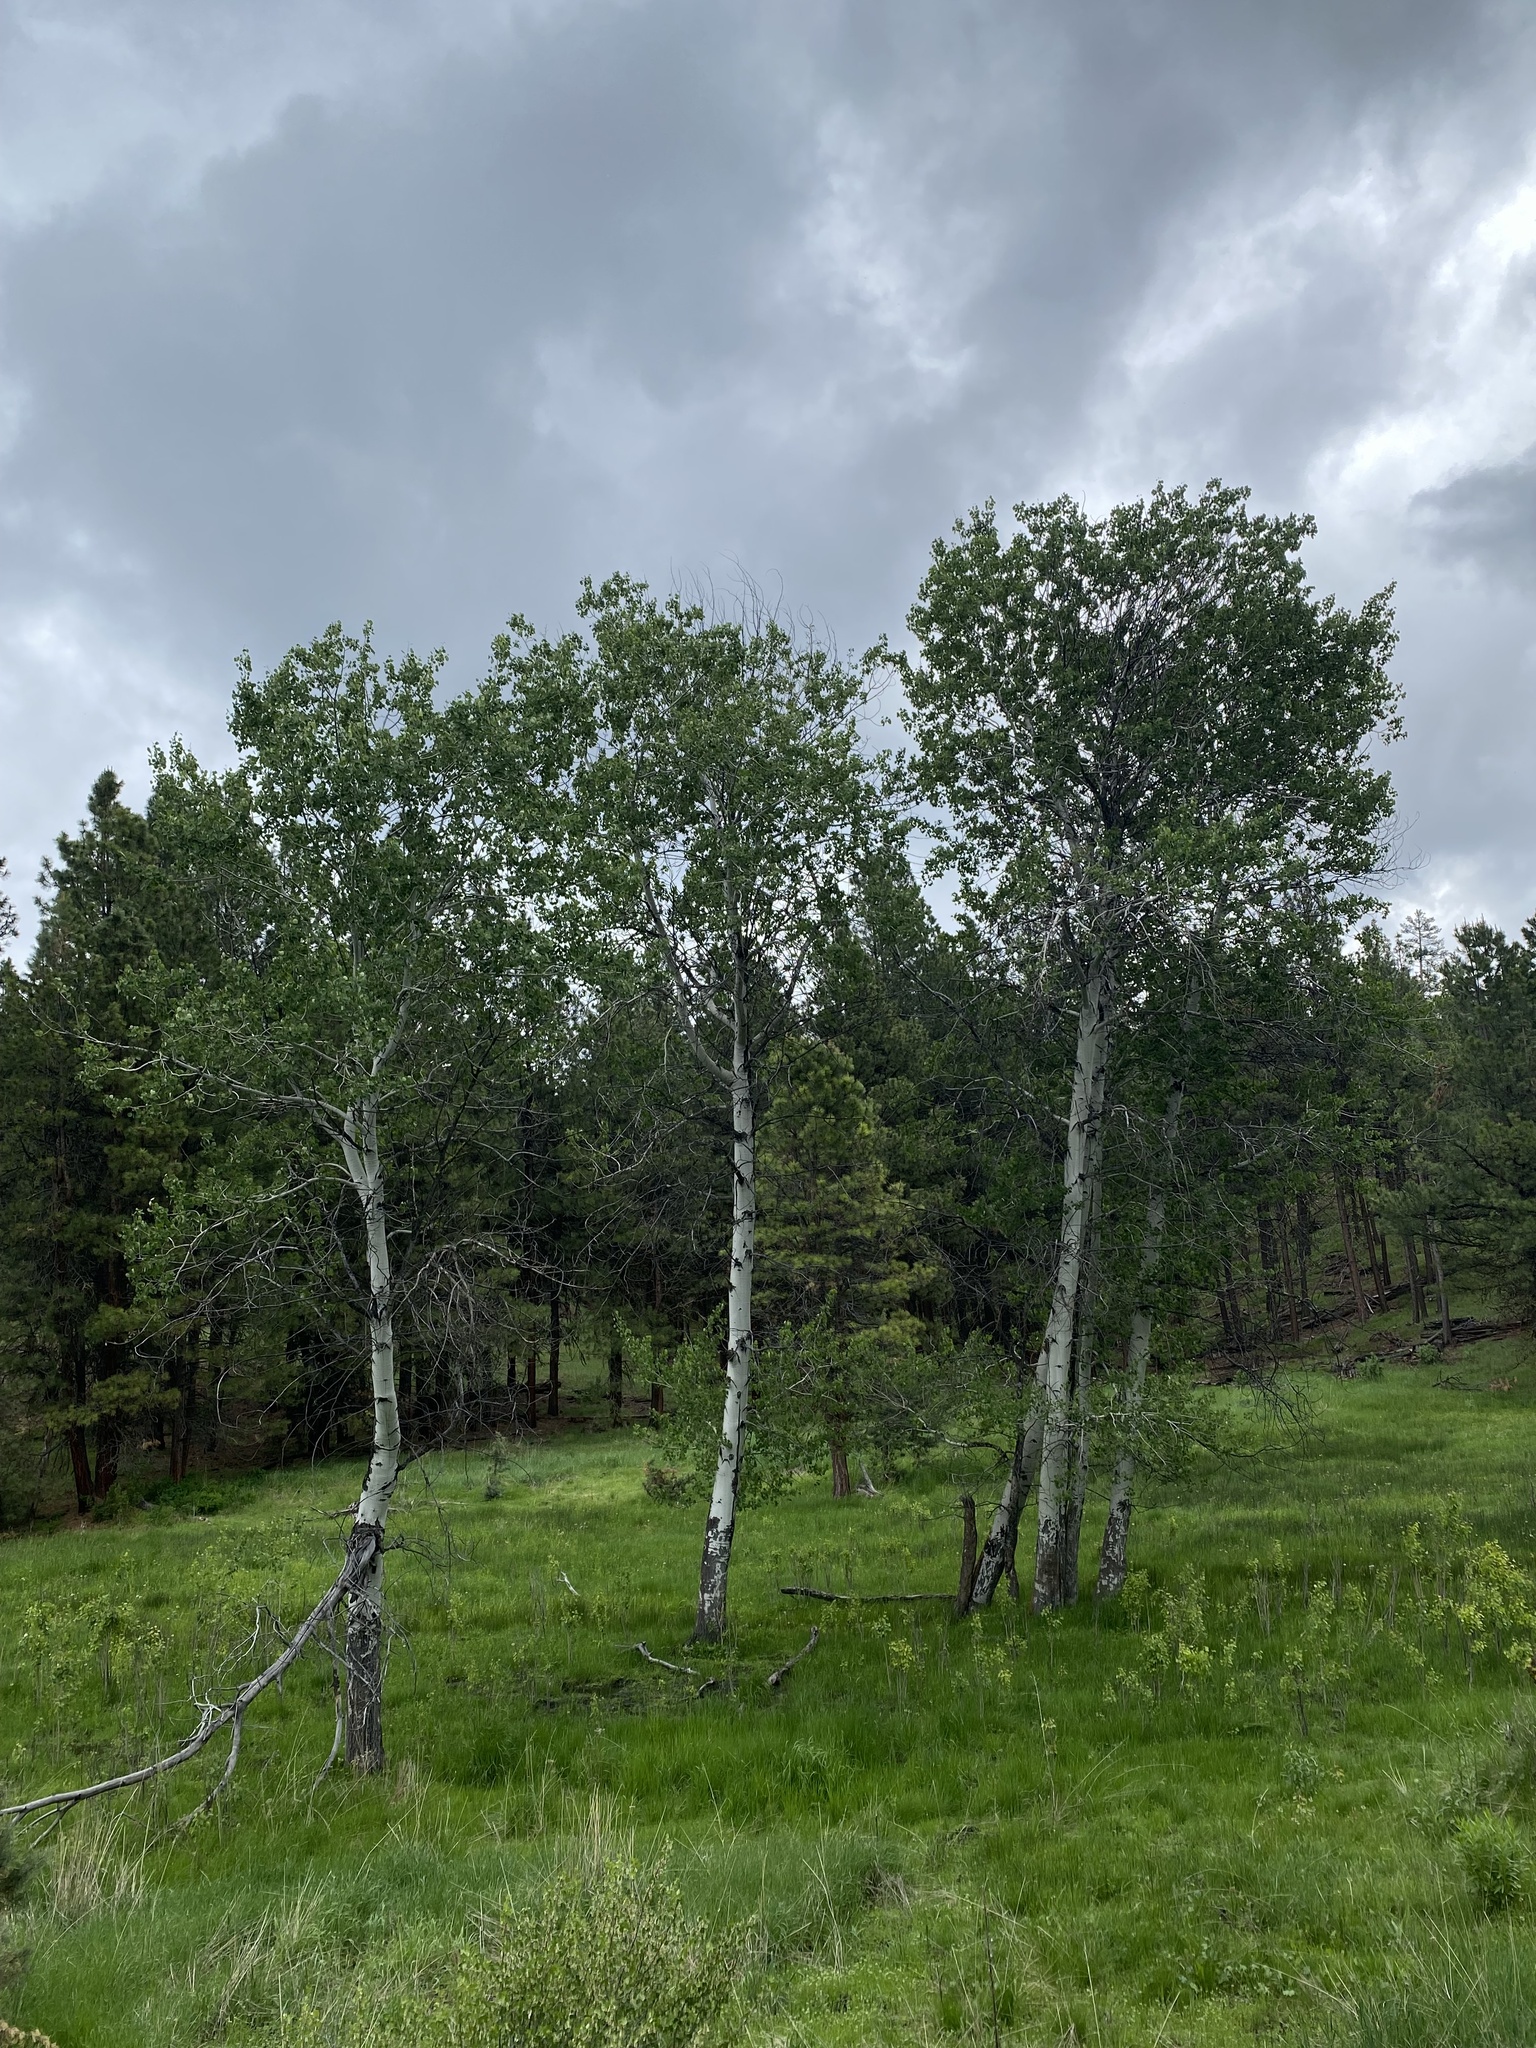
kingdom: Plantae
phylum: Tracheophyta
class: Magnoliopsida
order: Malpighiales
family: Salicaceae
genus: Populus
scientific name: Populus tremuloides
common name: Quaking aspen
